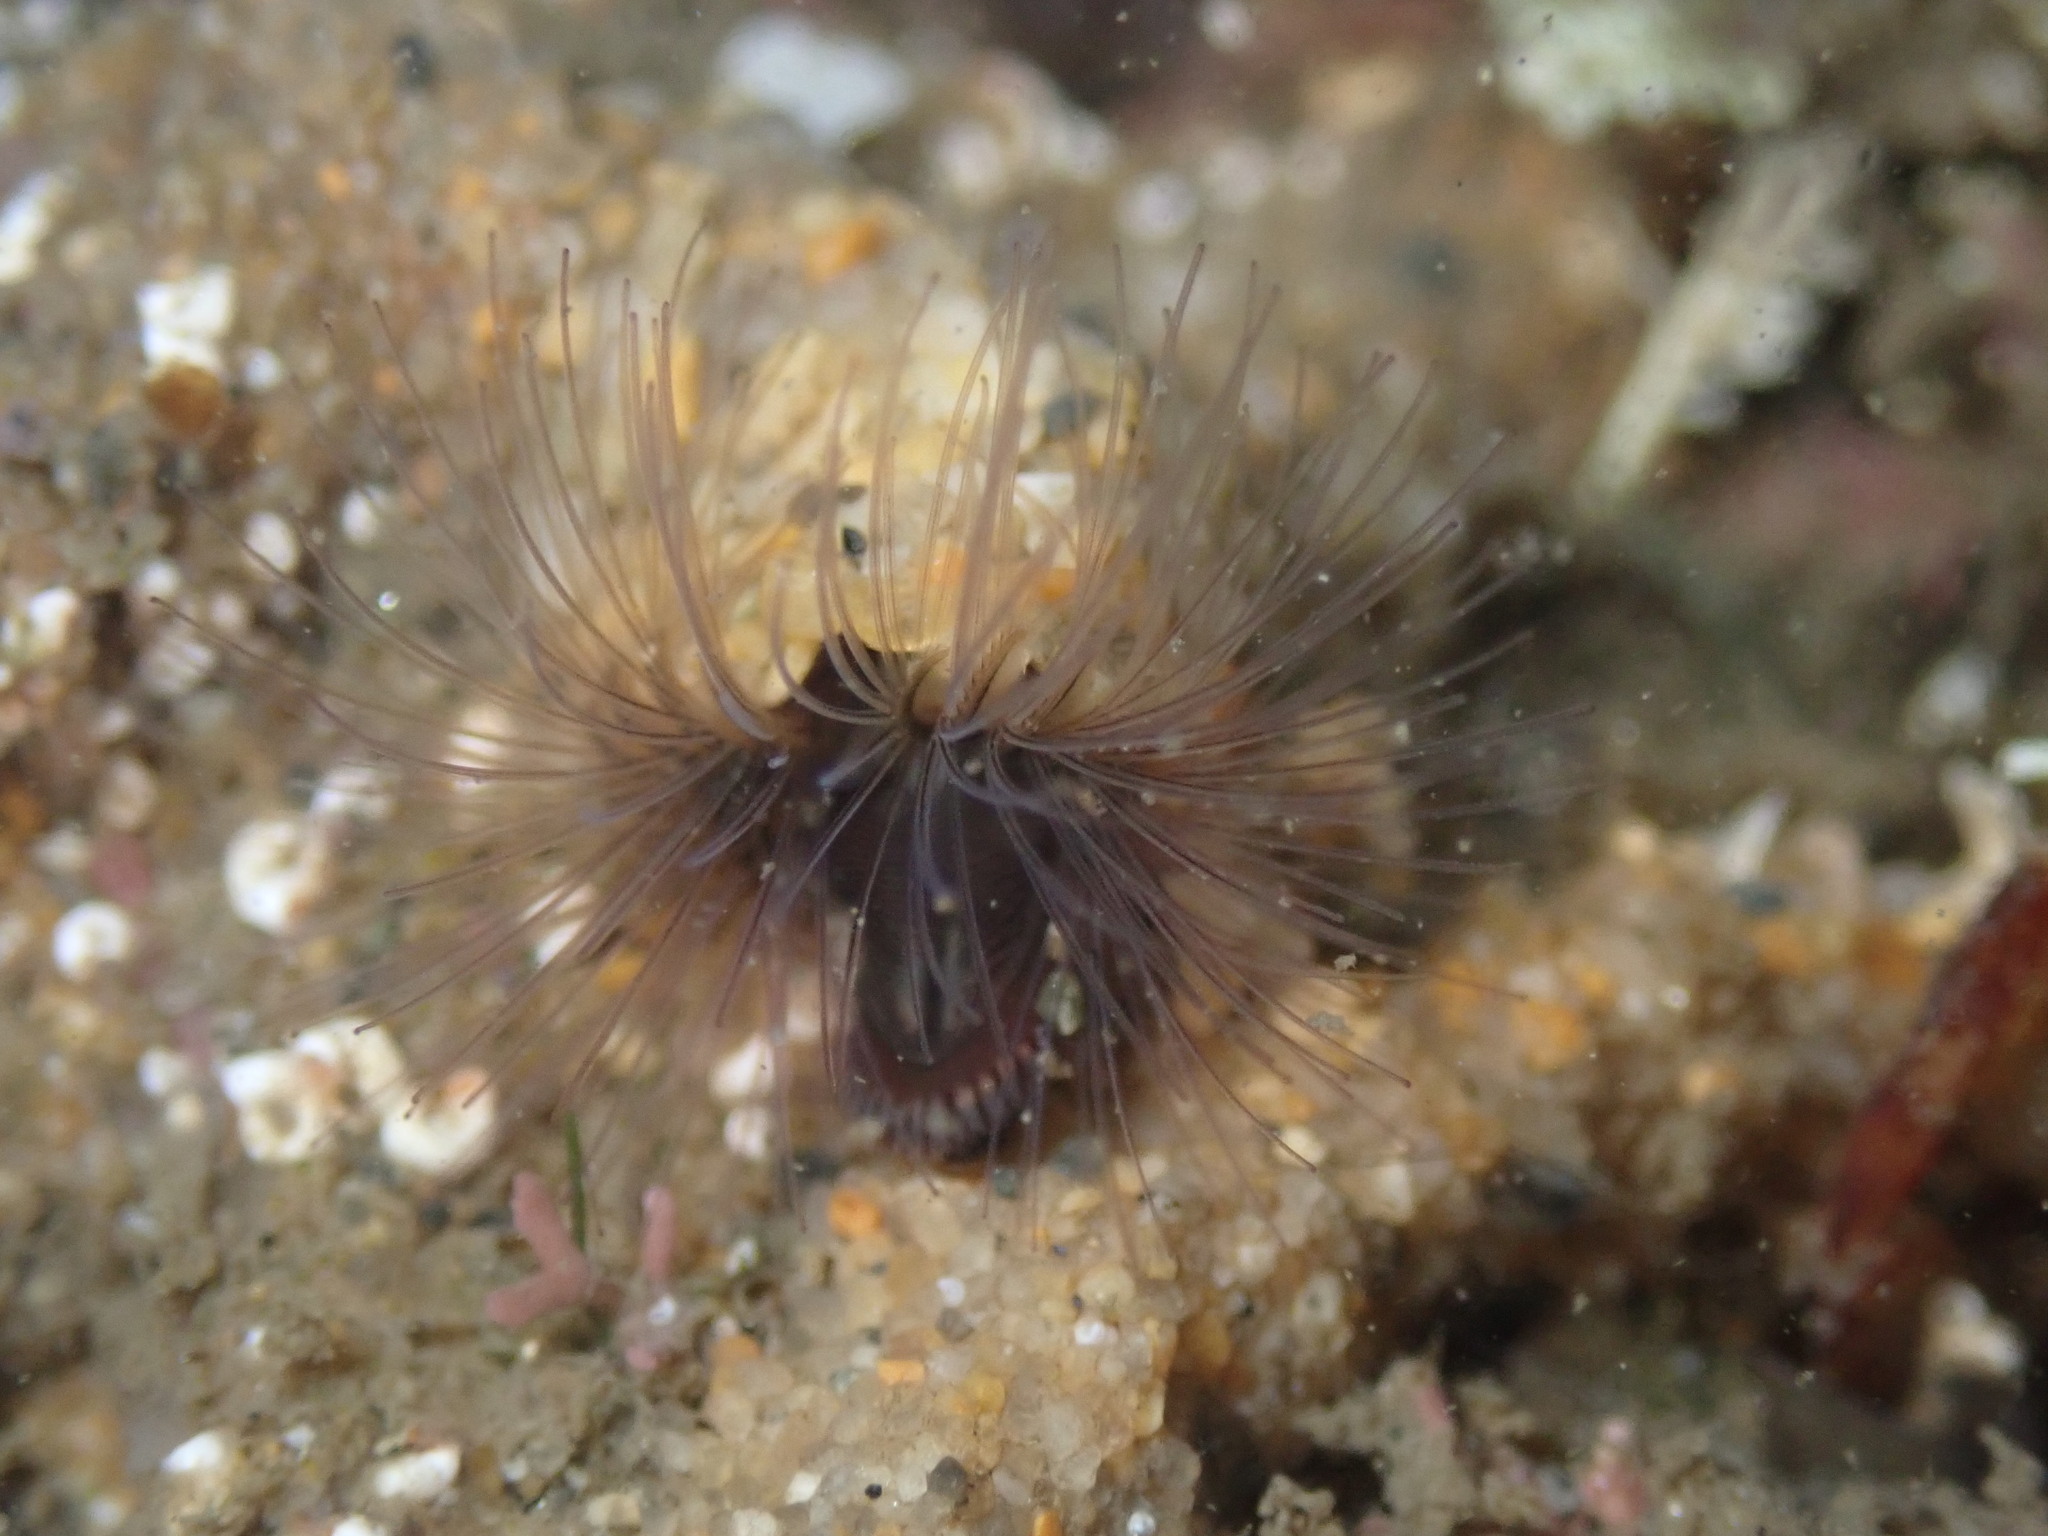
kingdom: Animalia
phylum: Annelida
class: Polychaeta
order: Sabellida
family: Sabellariidae
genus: Phragmatopoma
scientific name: Phragmatopoma californica
